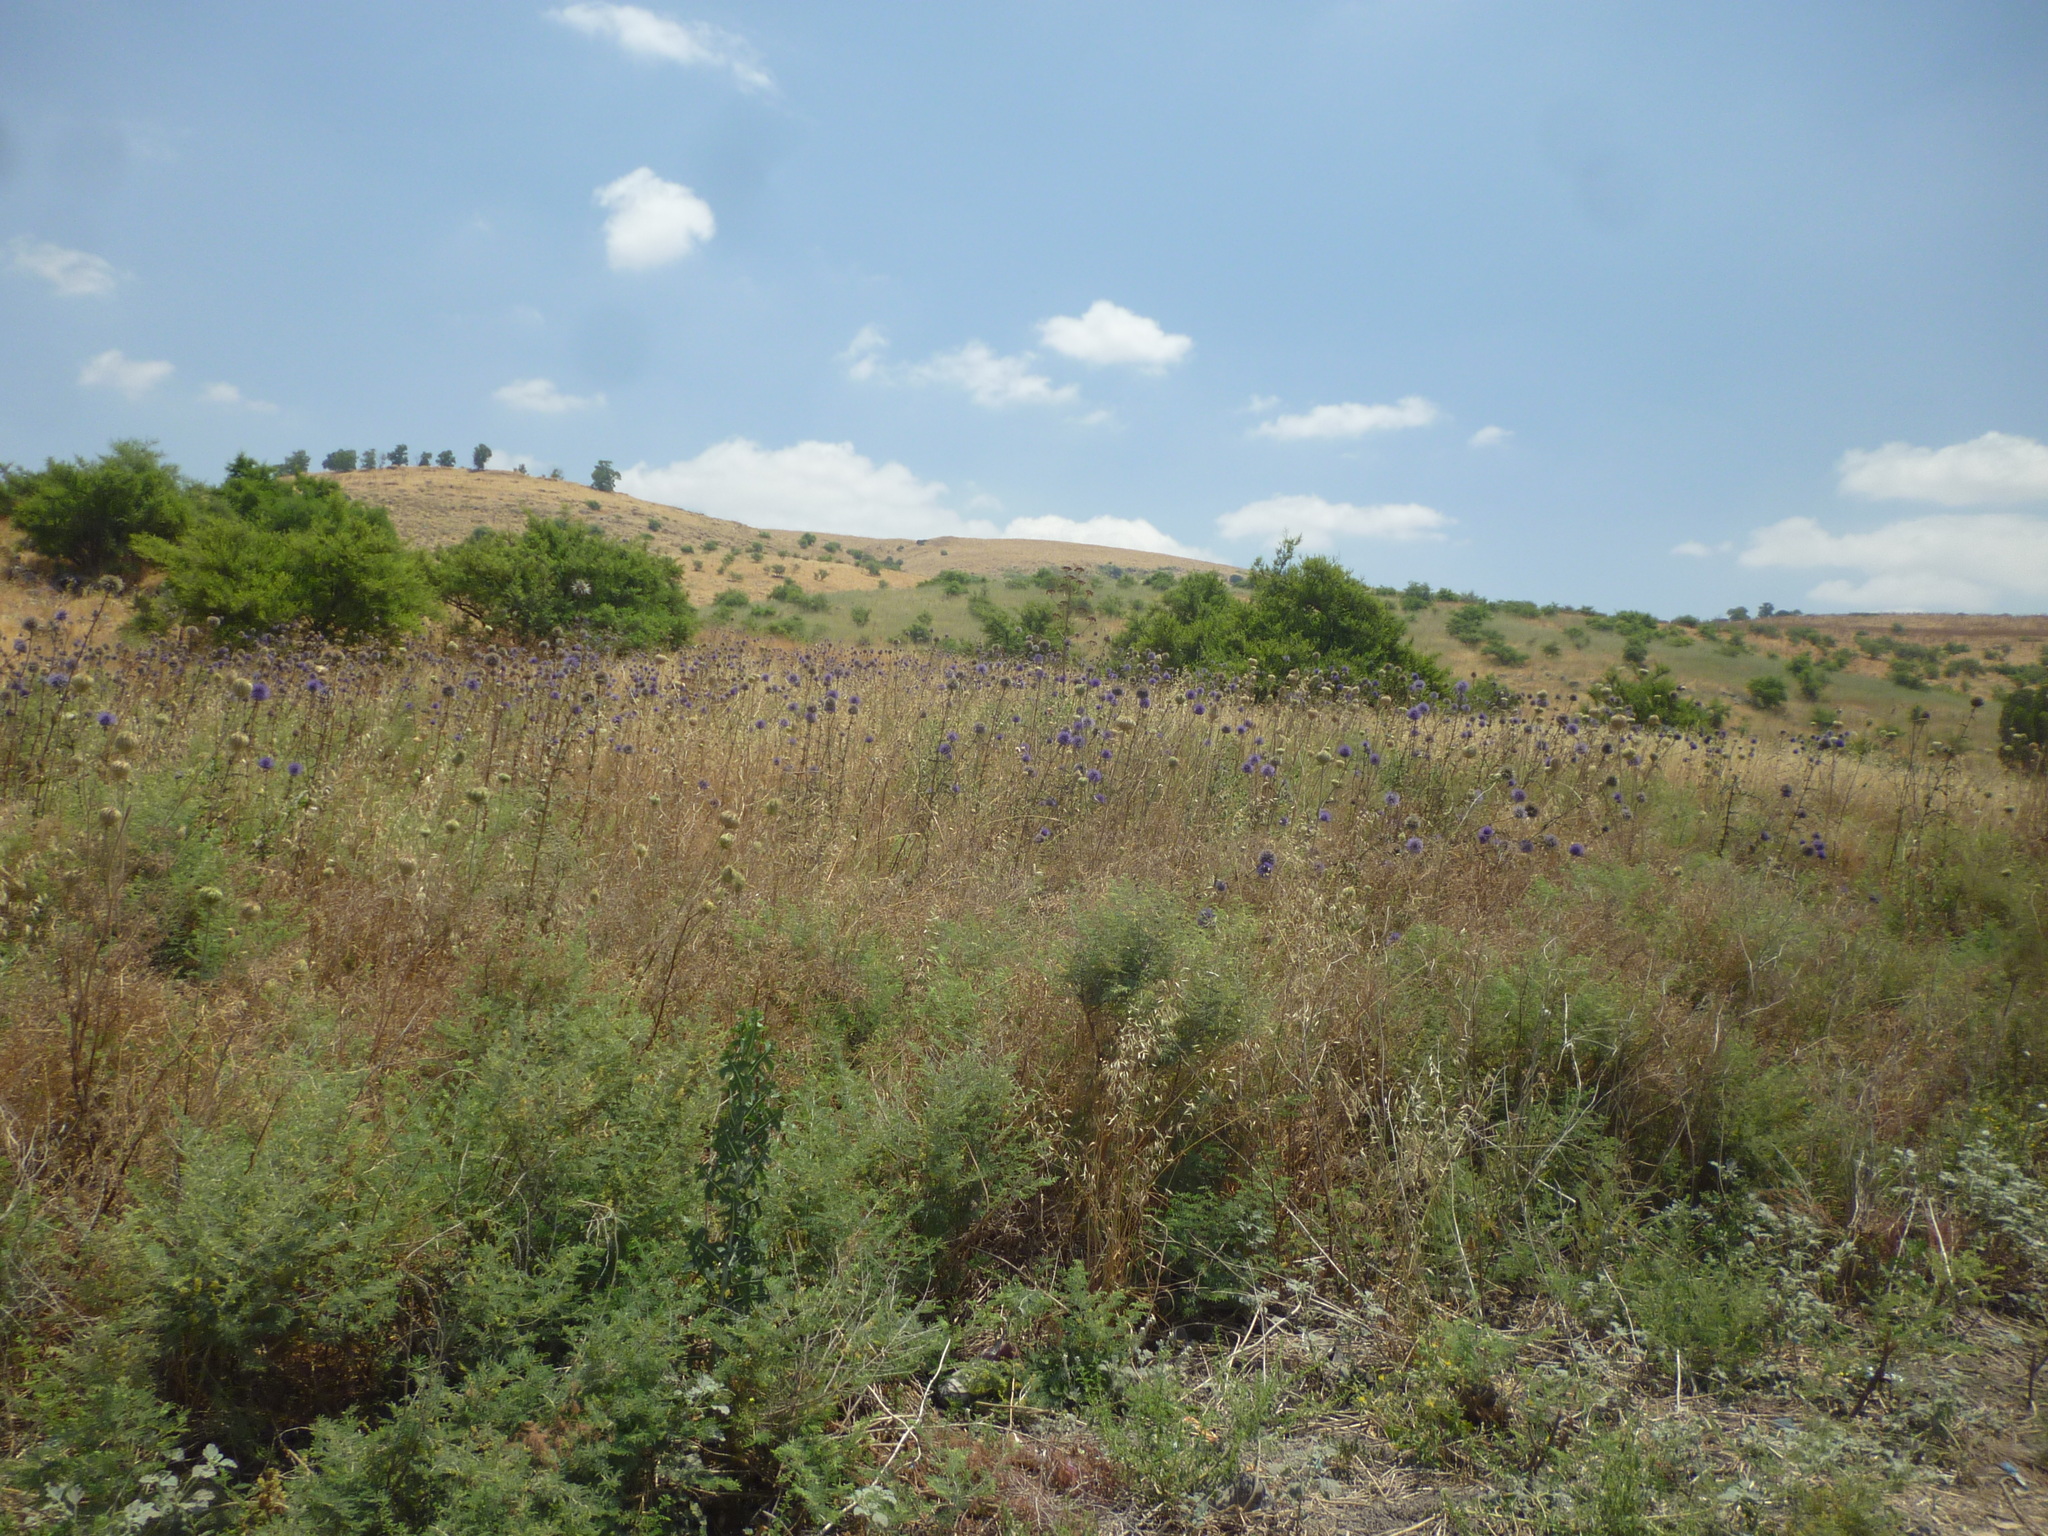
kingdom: Plantae
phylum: Tracheophyta
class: Magnoliopsida
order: Asterales
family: Asteraceae
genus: Echinops
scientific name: Echinops adenocaulos
